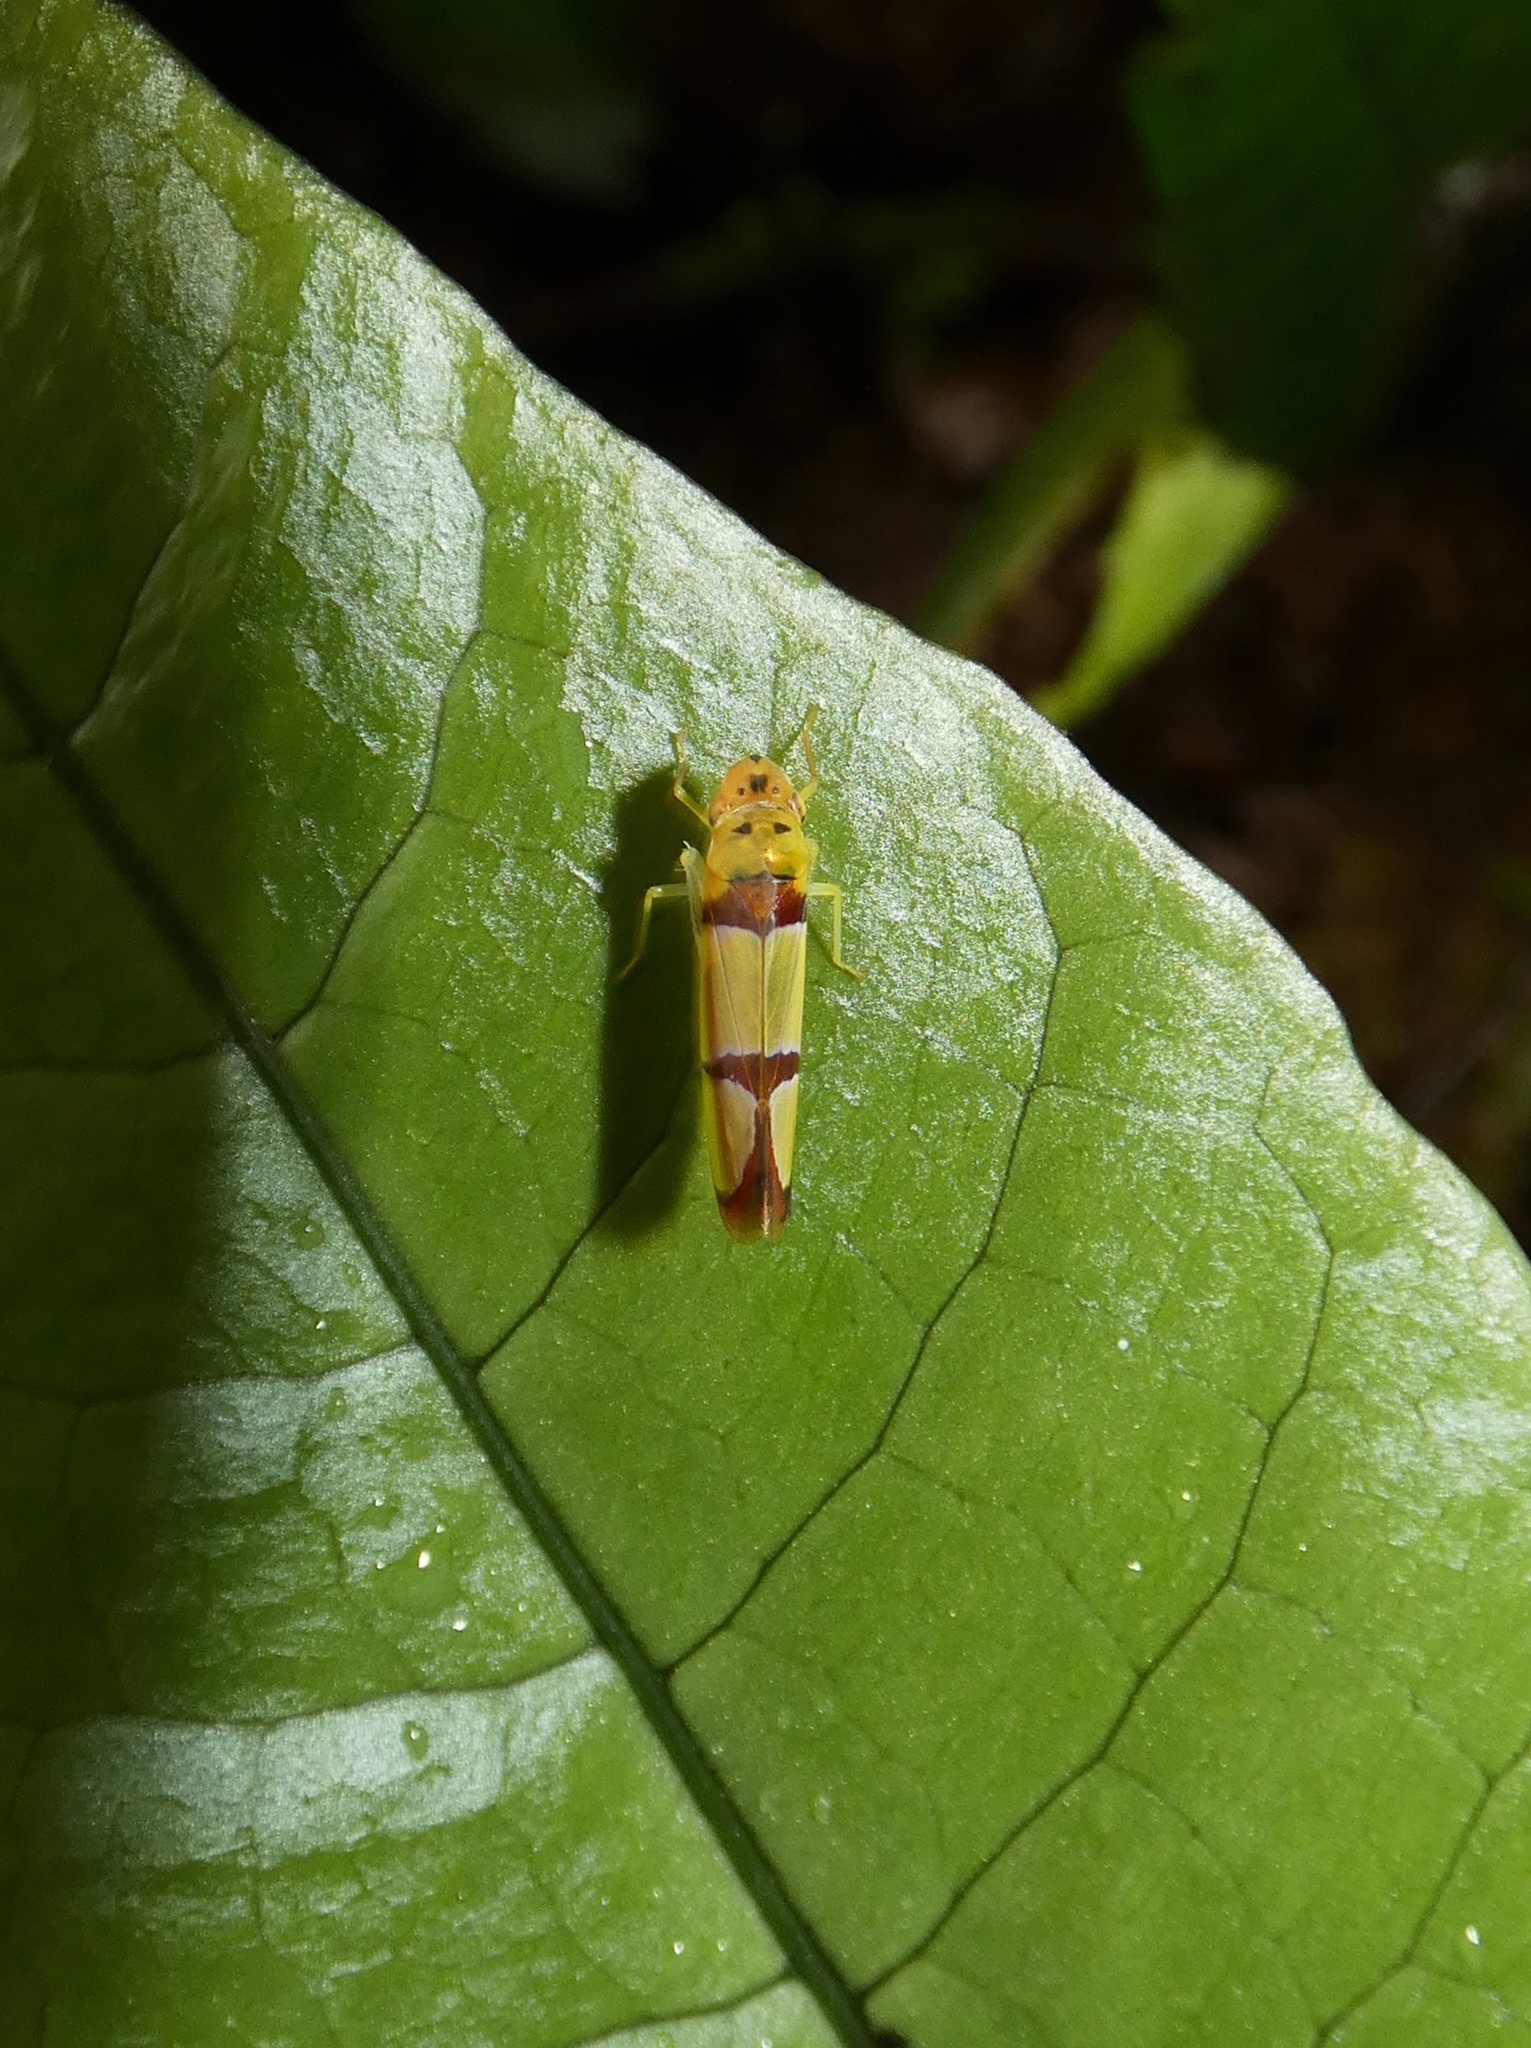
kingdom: Animalia
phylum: Arthropoda
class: Insecta
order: Hemiptera
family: Cicadellidae
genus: Baleja
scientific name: Baleja rufofasciata
